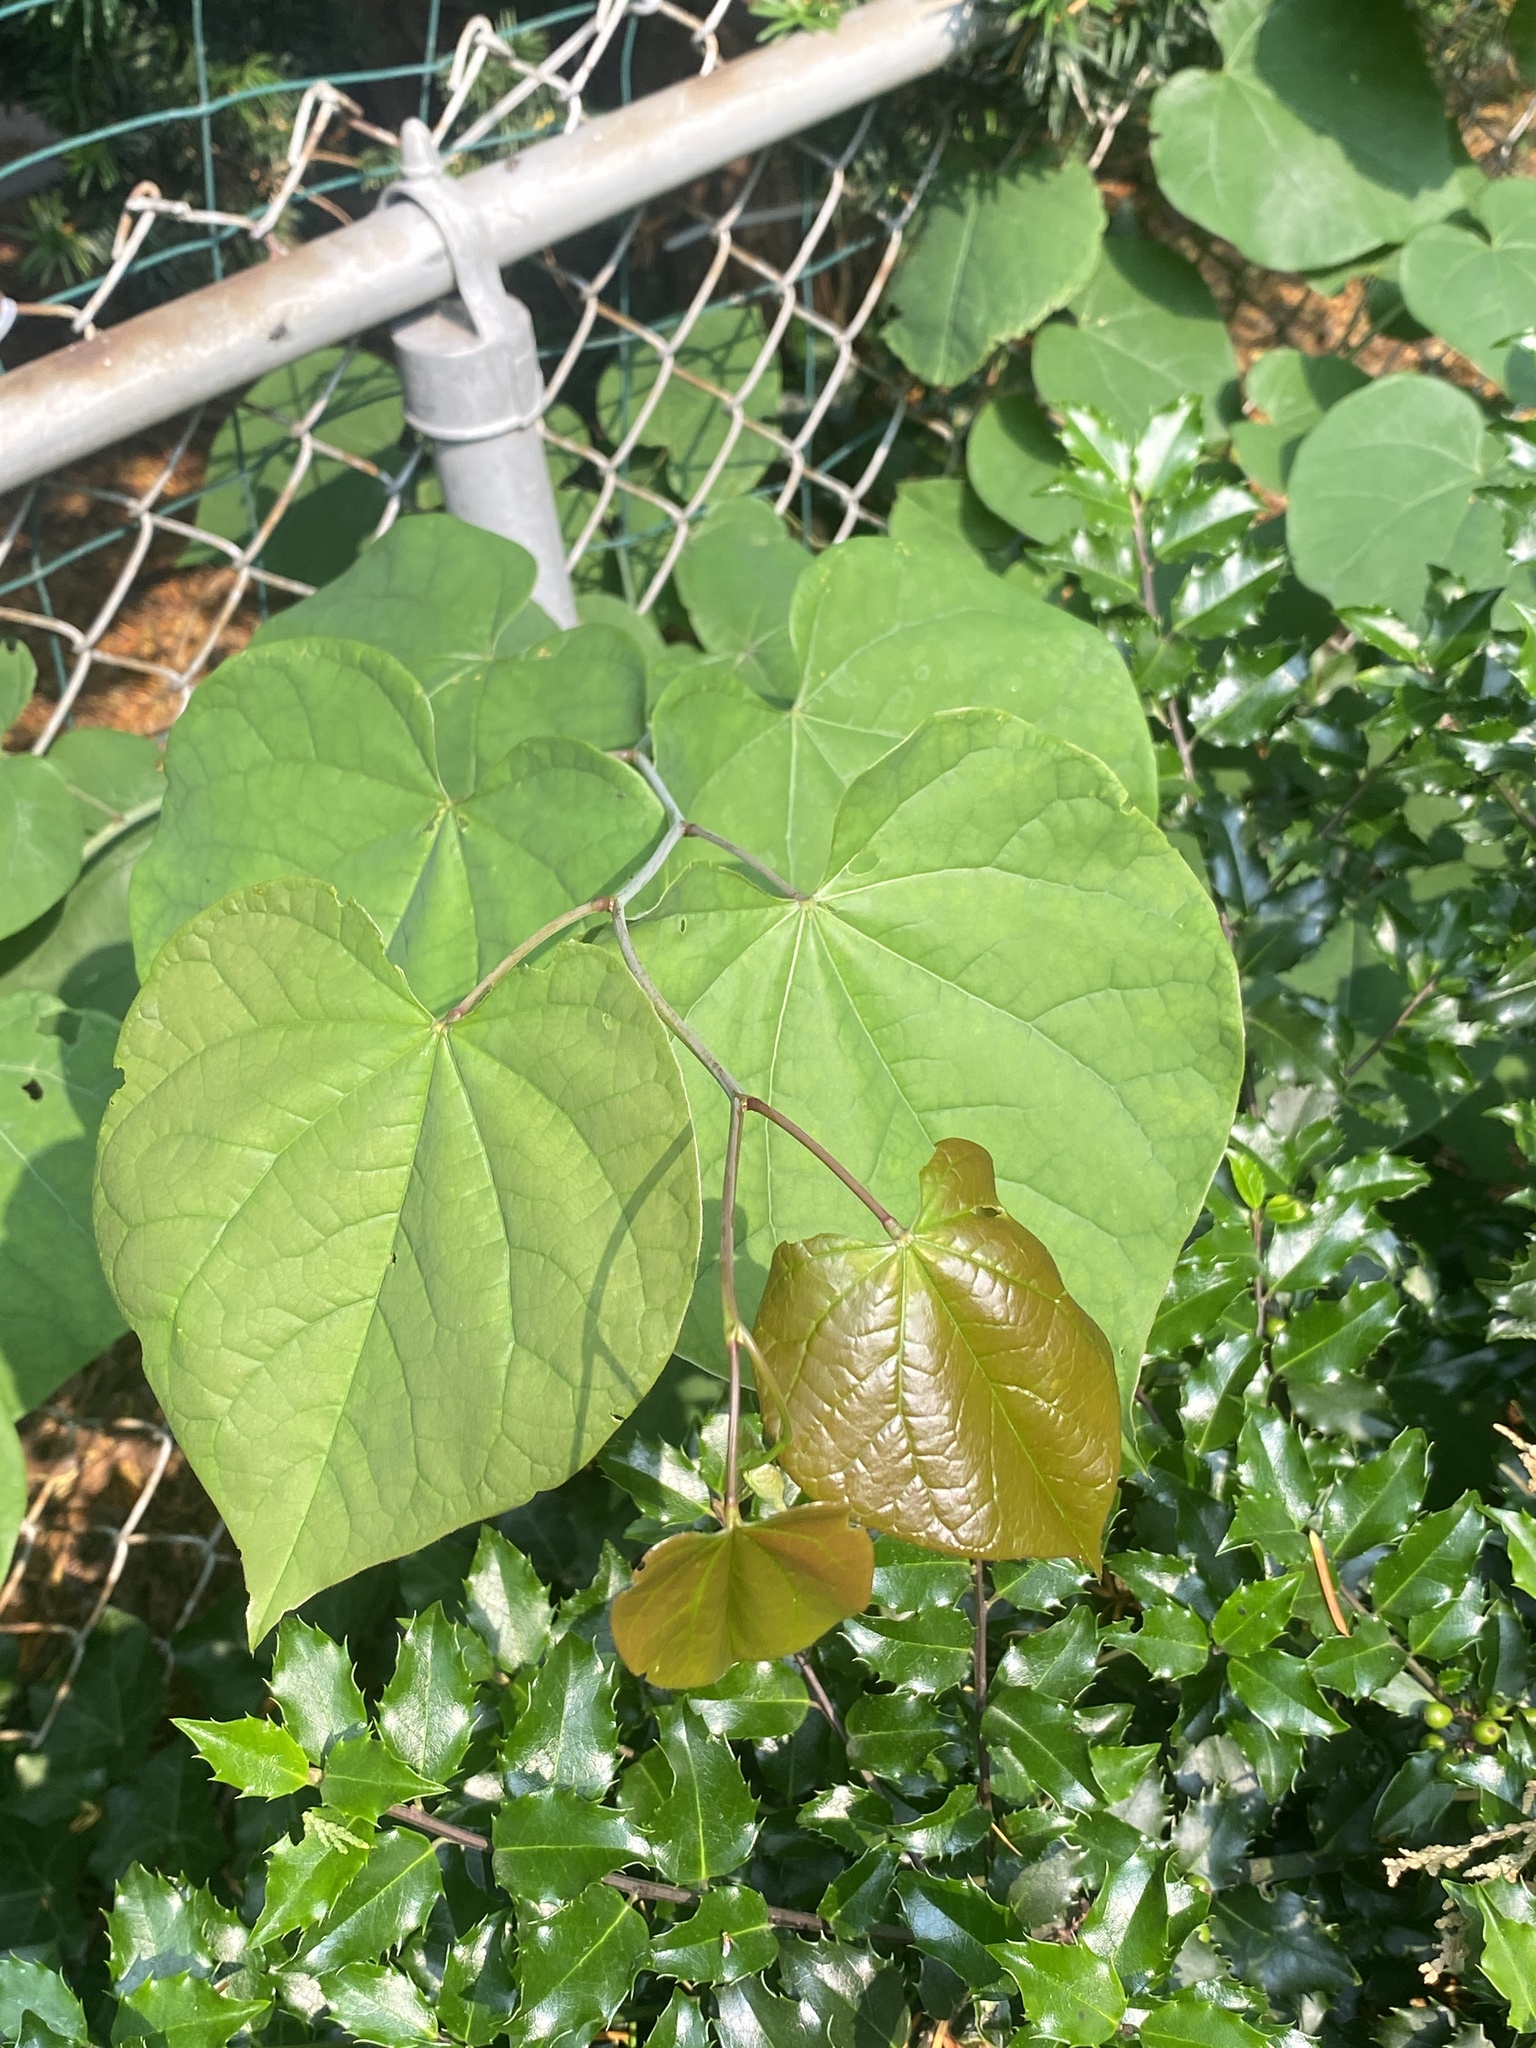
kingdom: Plantae
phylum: Tracheophyta
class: Magnoliopsida
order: Fabales
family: Fabaceae
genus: Cercis
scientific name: Cercis canadensis
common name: Eastern redbud
